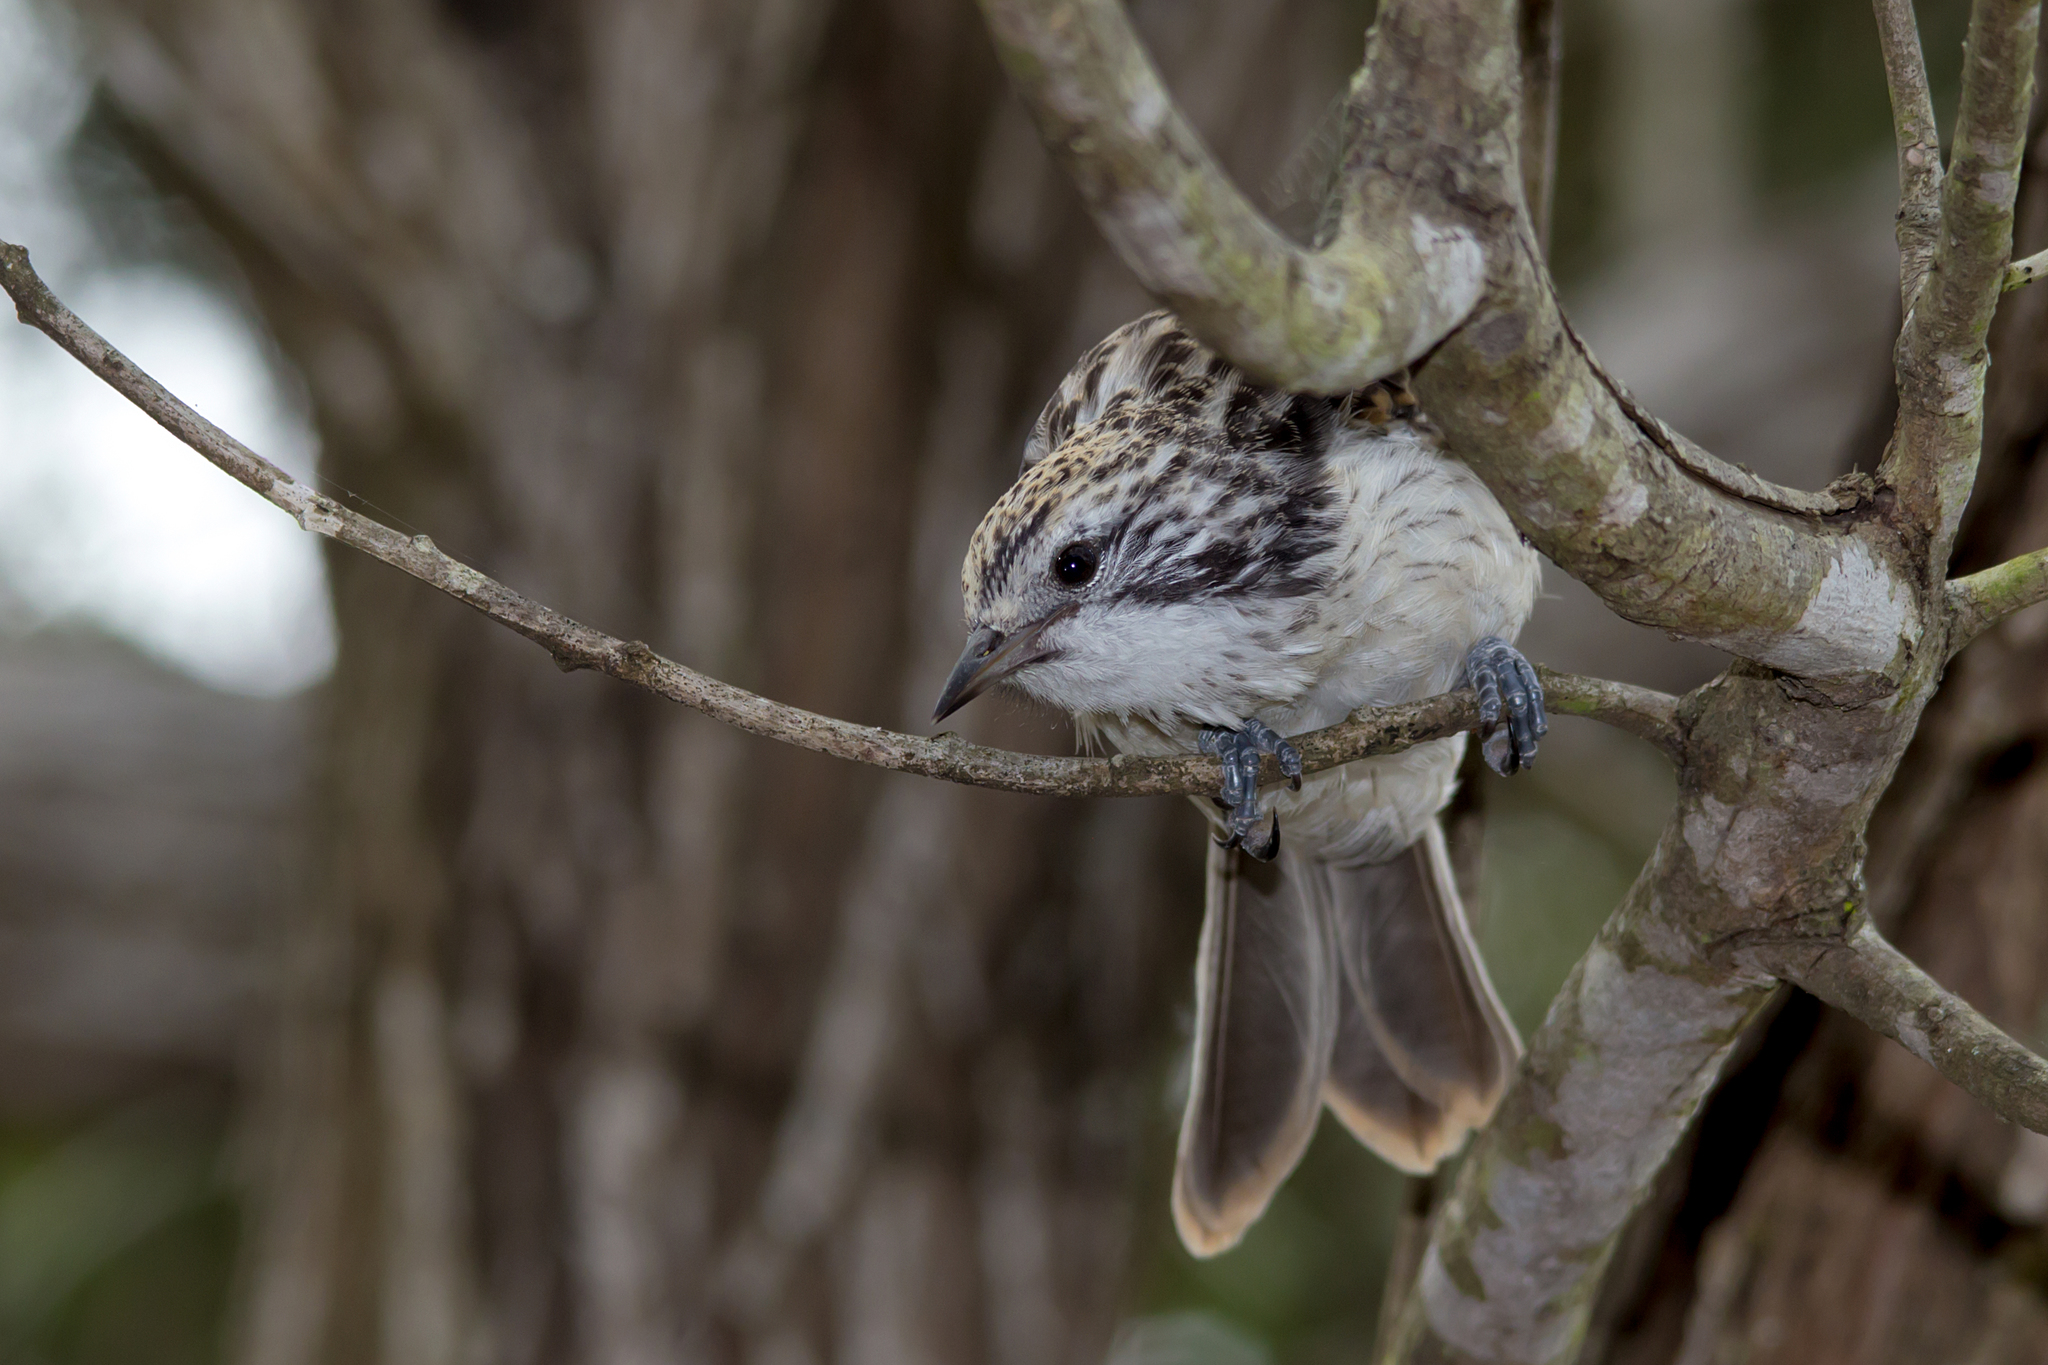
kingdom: Animalia
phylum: Chordata
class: Aves
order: Passeriformes
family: Meliphagidae
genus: Plectorhyncha
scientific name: Plectorhyncha lanceolata
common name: Striped honeyeater
